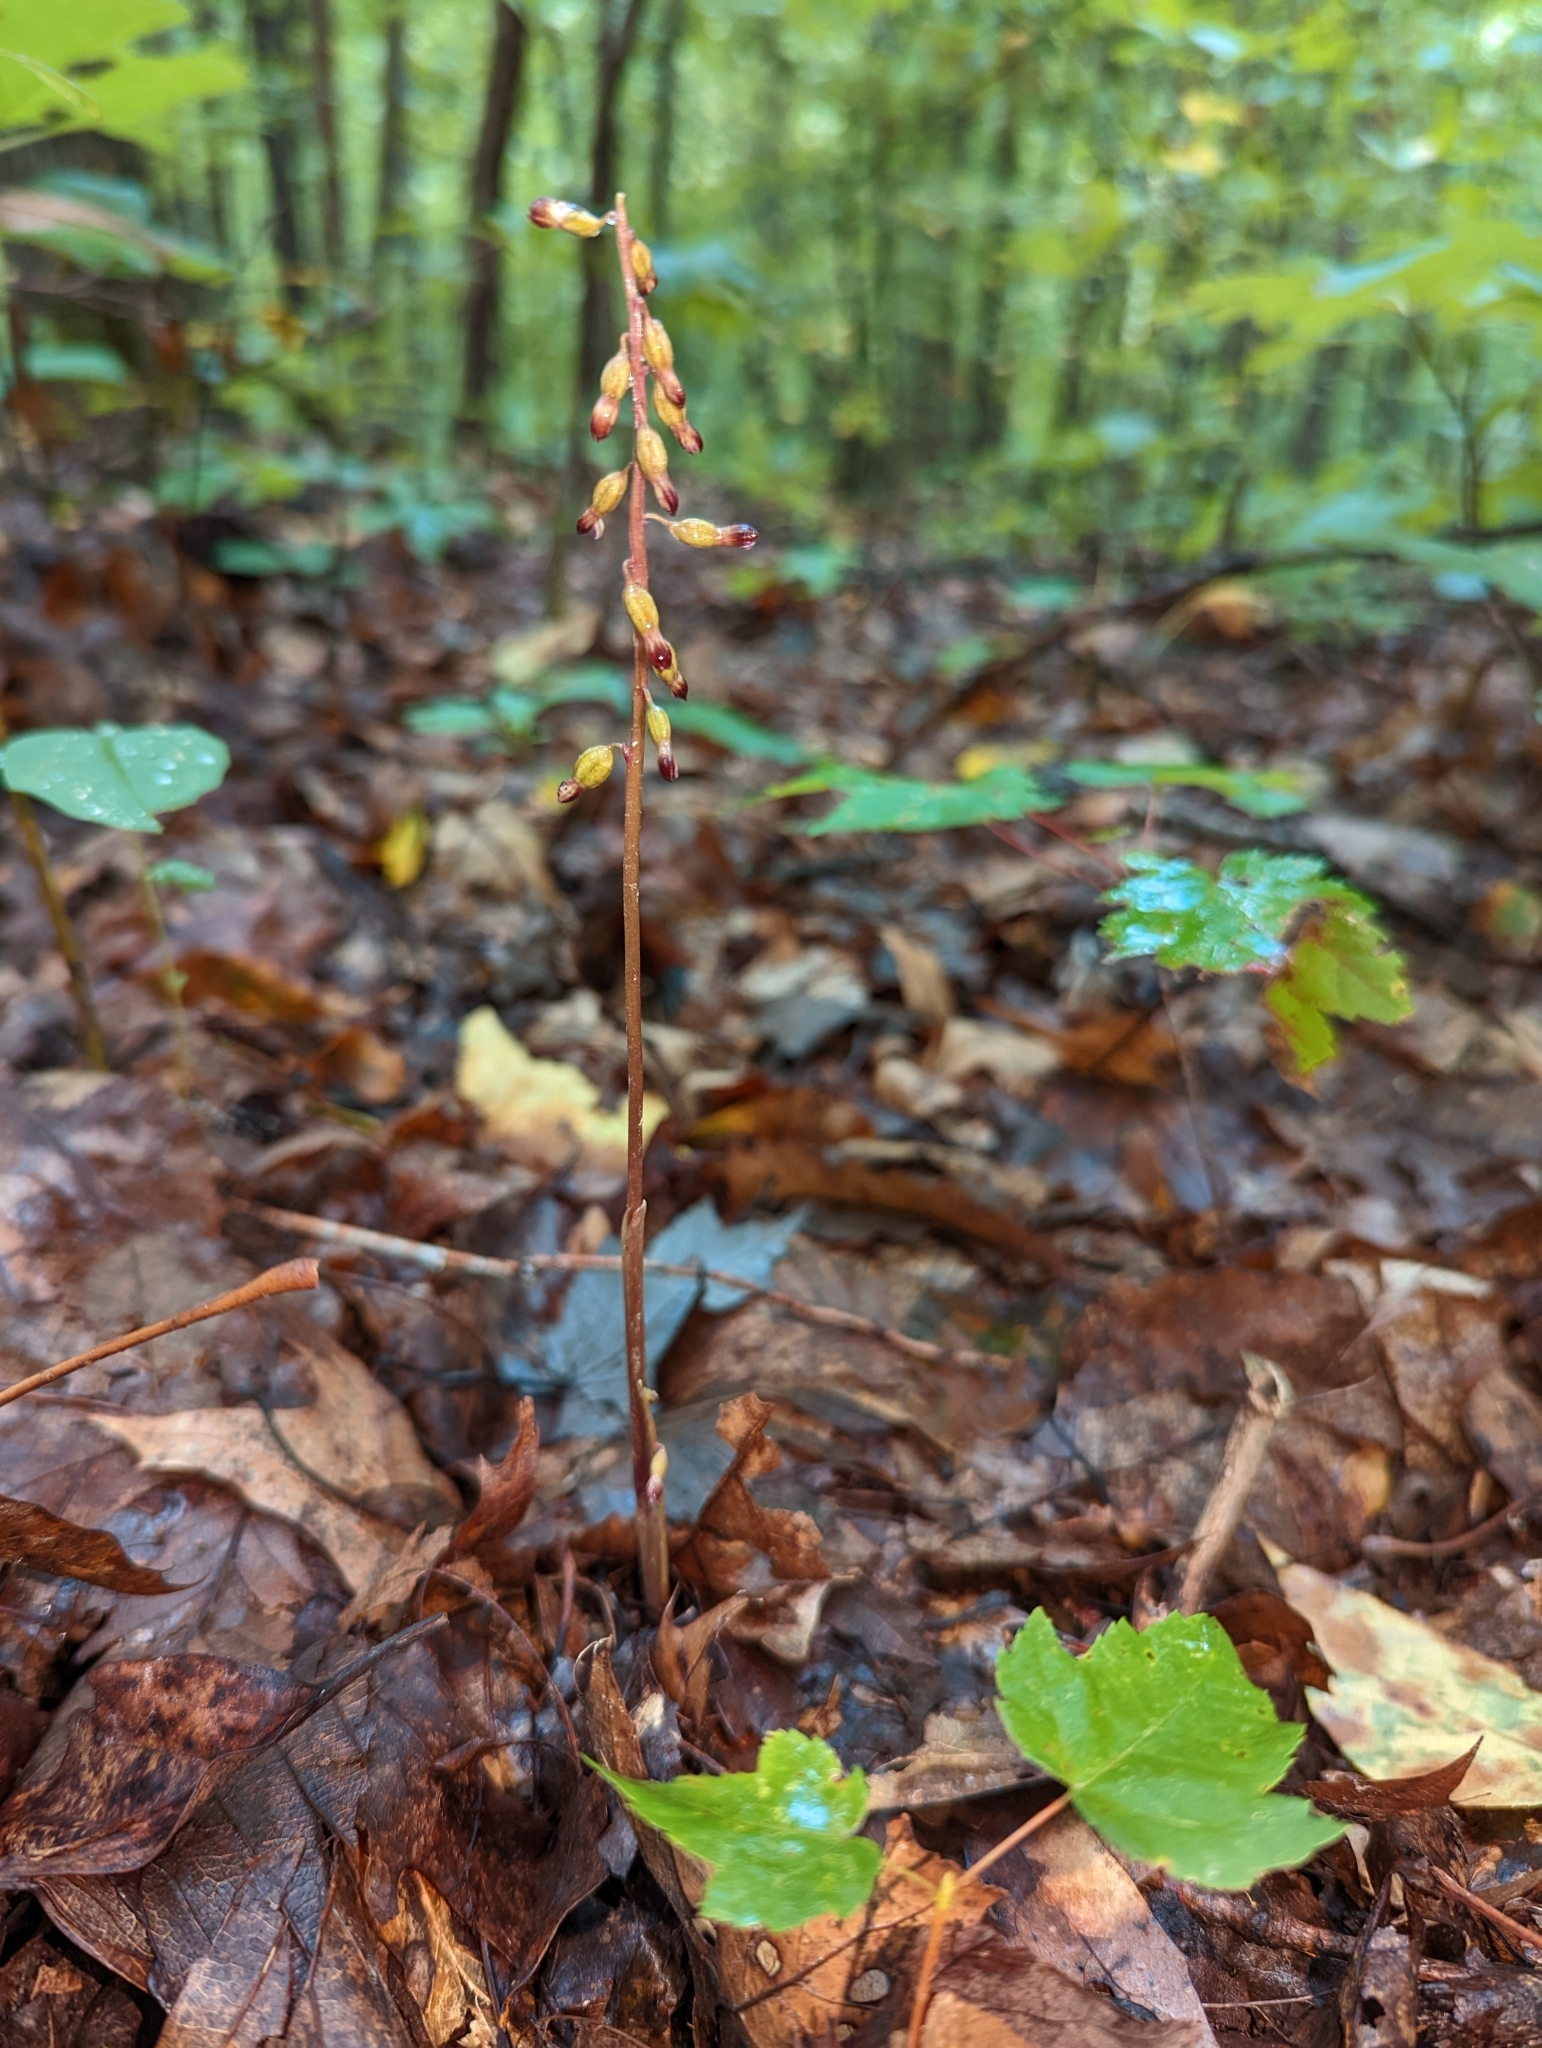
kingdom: Plantae
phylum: Tracheophyta
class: Liliopsida
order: Asparagales
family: Orchidaceae
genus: Corallorhiza
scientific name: Corallorhiza odontorhiza
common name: Autumn coralroot
